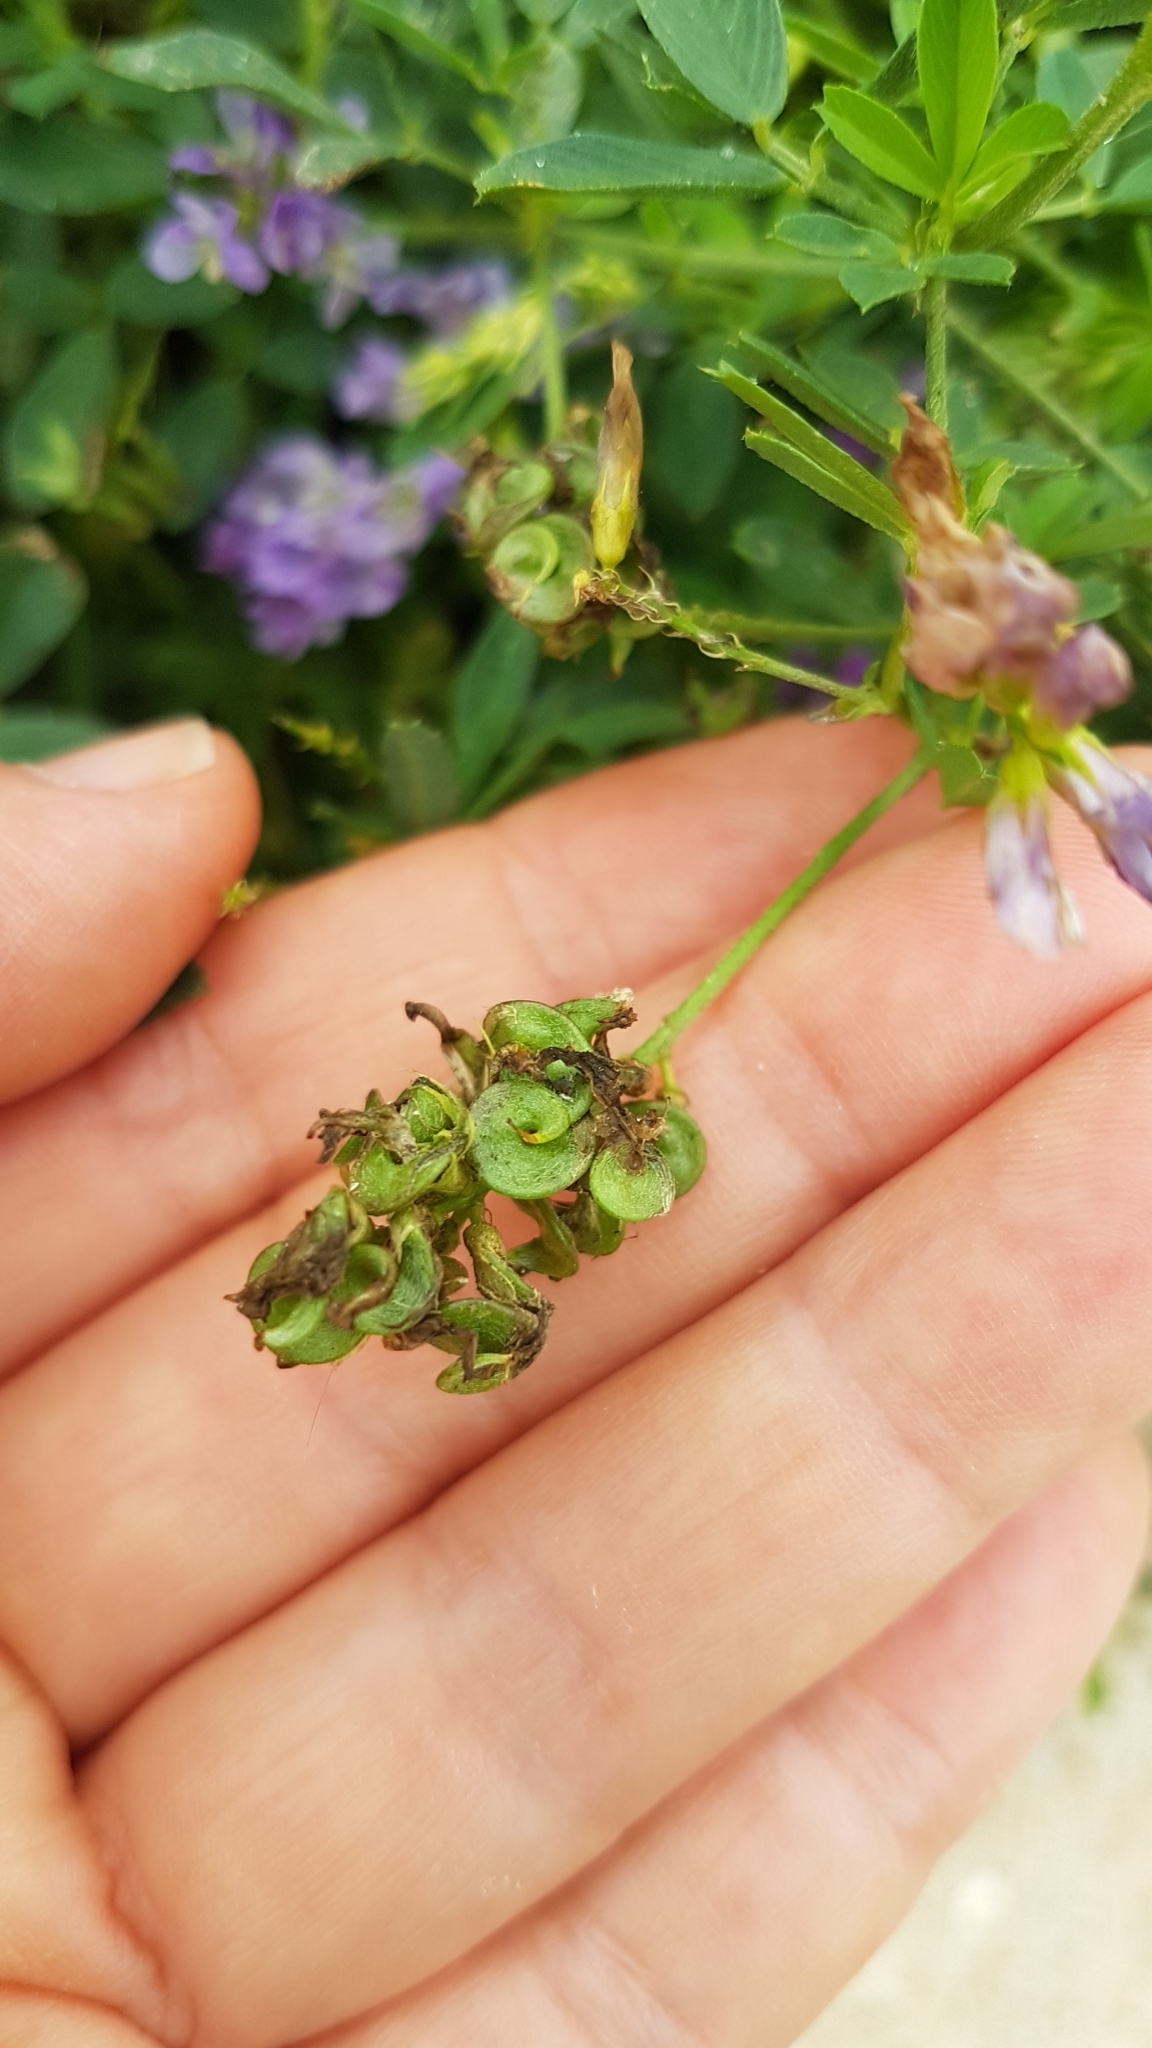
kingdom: Plantae
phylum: Tracheophyta
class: Magnoliopsida
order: Fabales
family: Fabaceae
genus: Medicago
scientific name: Medicago sativa
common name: Alfalfa
